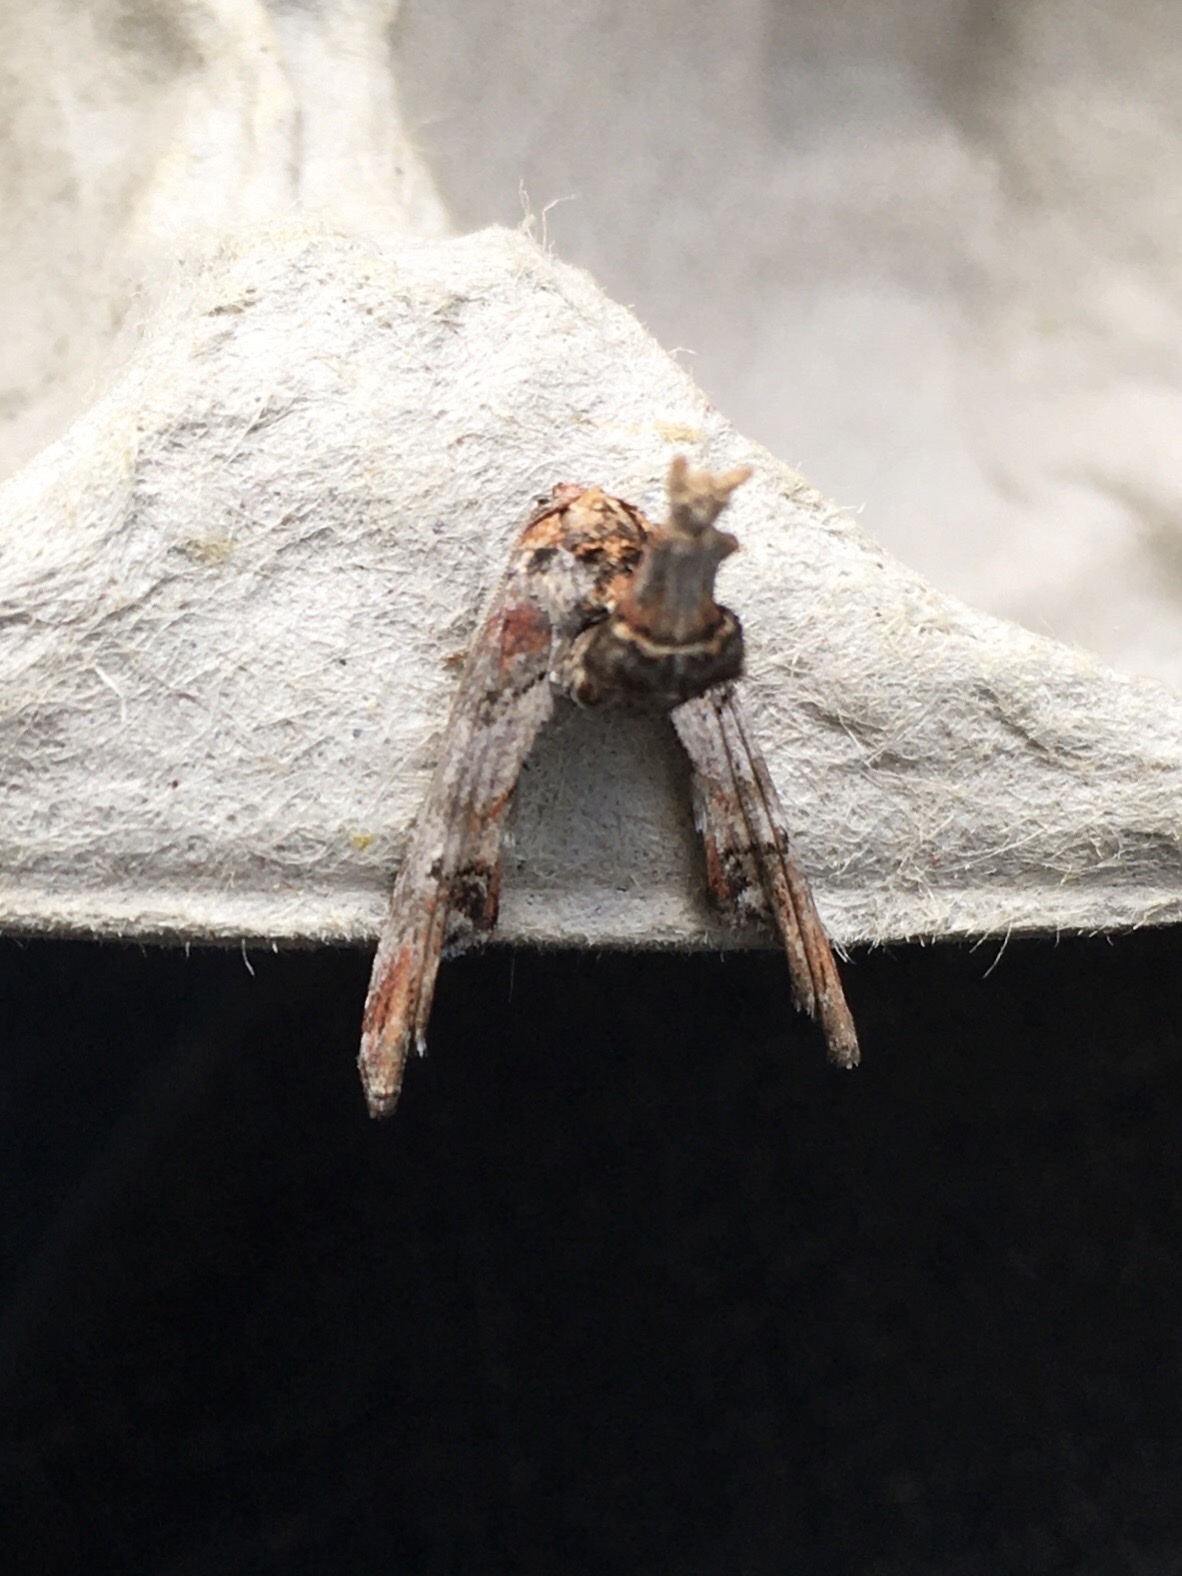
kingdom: Animalia
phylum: Arthropoda
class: Insecta
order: Lepidoptera
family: Euteliidae
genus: Marathyssa
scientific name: Marathyssa inficita
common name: Dark marathyssa moth
